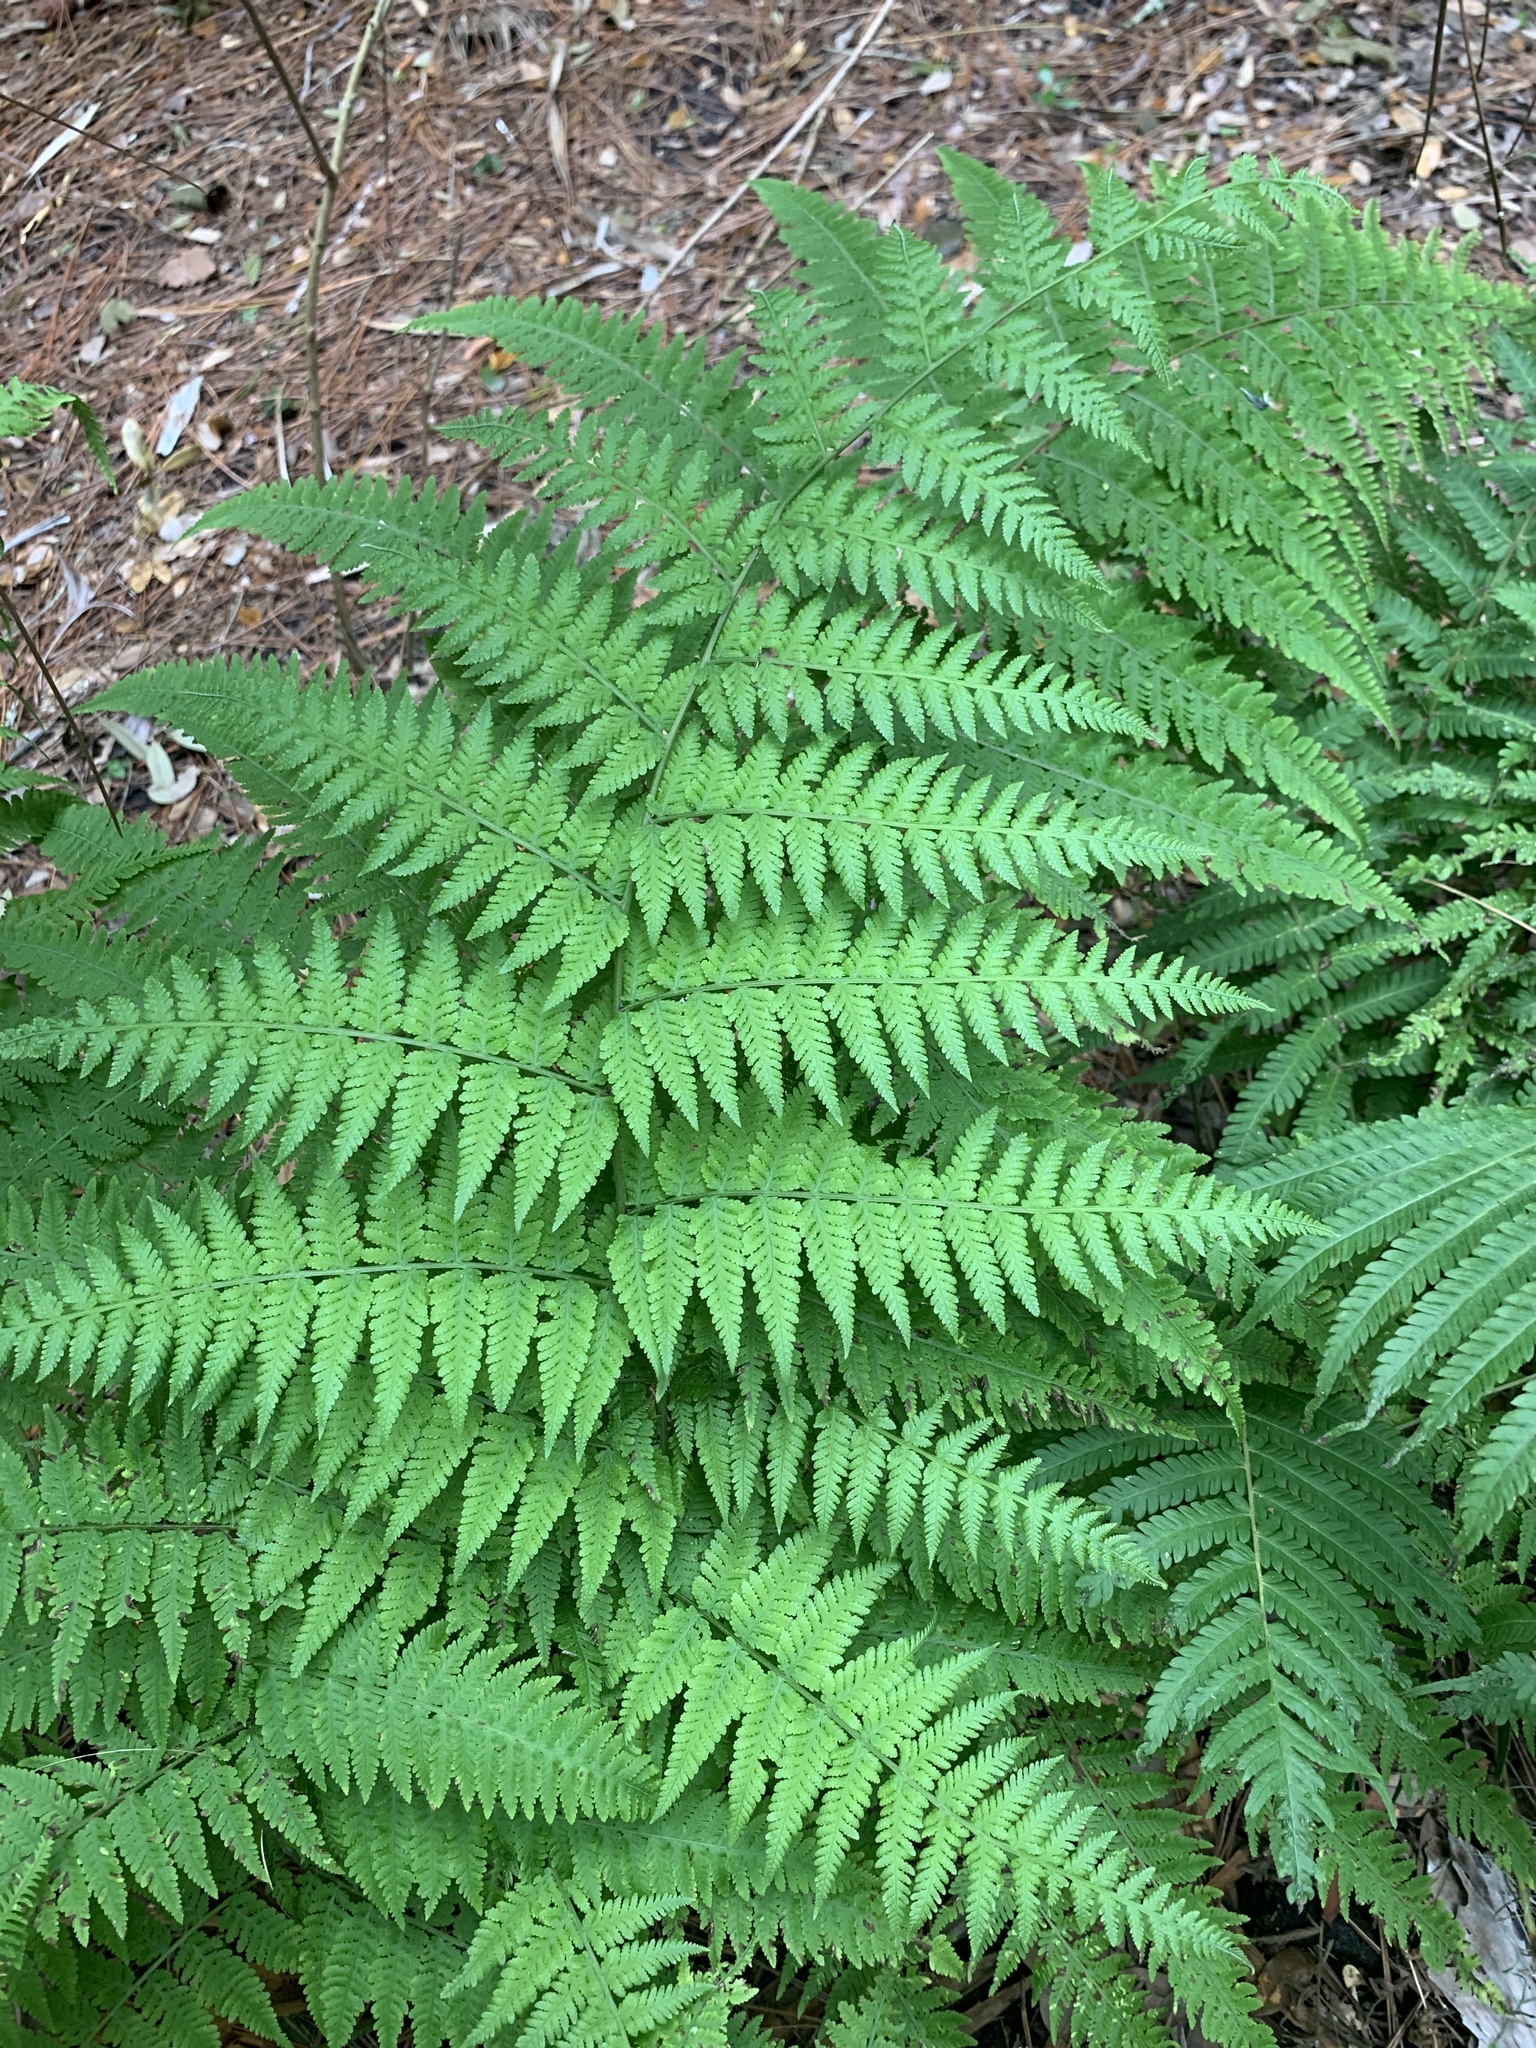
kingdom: Plantae
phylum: Tracheophyta
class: Polypodiopsida
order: Polypodiales
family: Thelypteridaceae
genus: Macrothelypteris
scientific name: Macrothelypteris torresiana
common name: Swordfern
